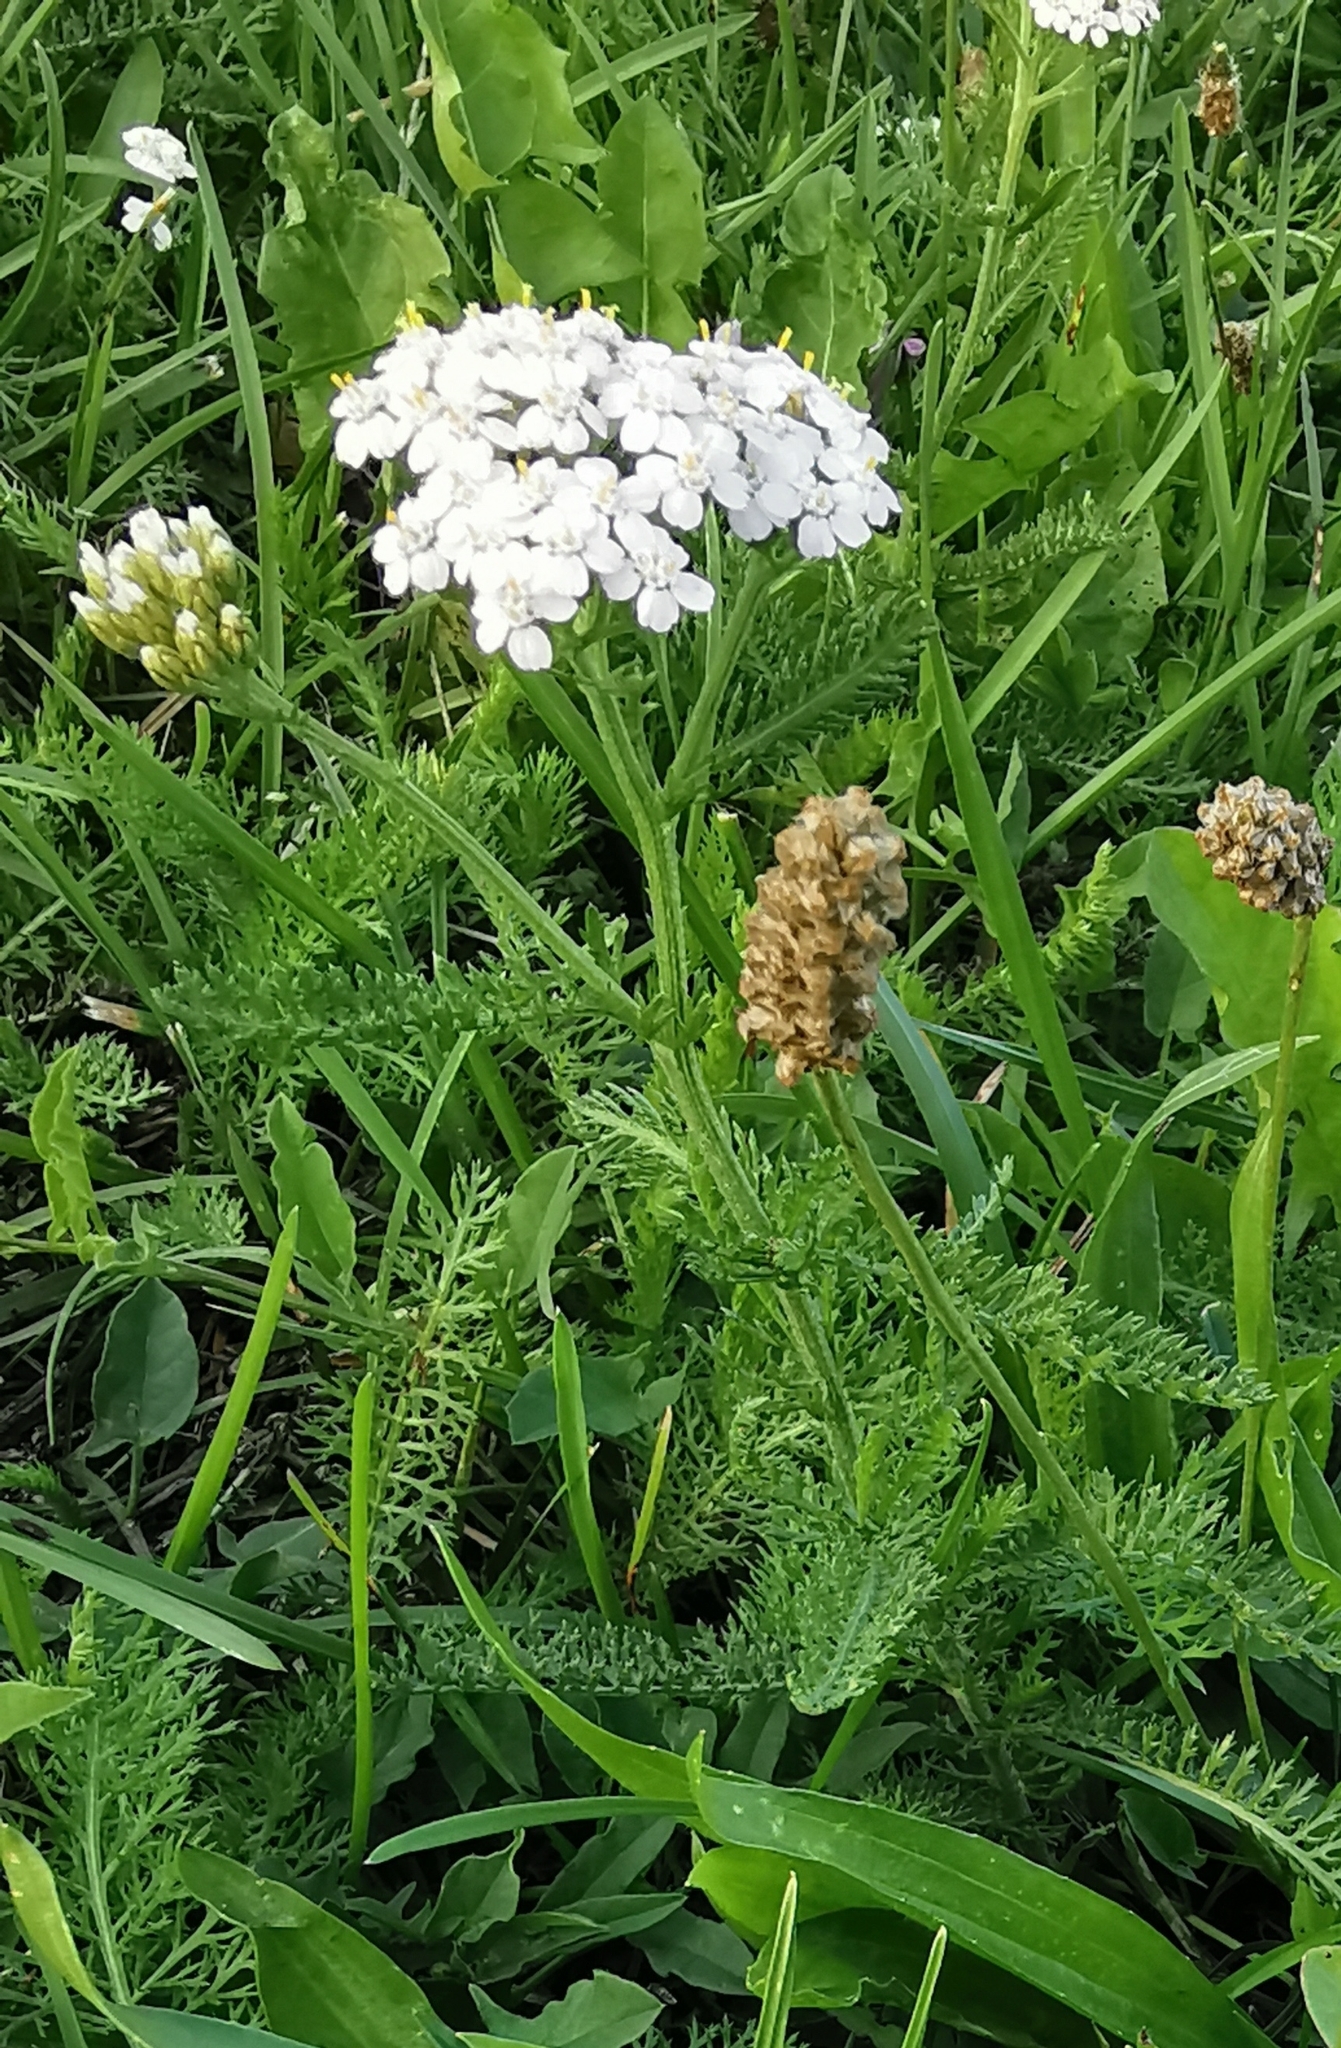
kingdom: Plantae
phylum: Tracheophyta
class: Magnoliopsida
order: Asterales
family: Asteraceae
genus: Achillea
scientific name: Achillea millefolium
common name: Yarrow
